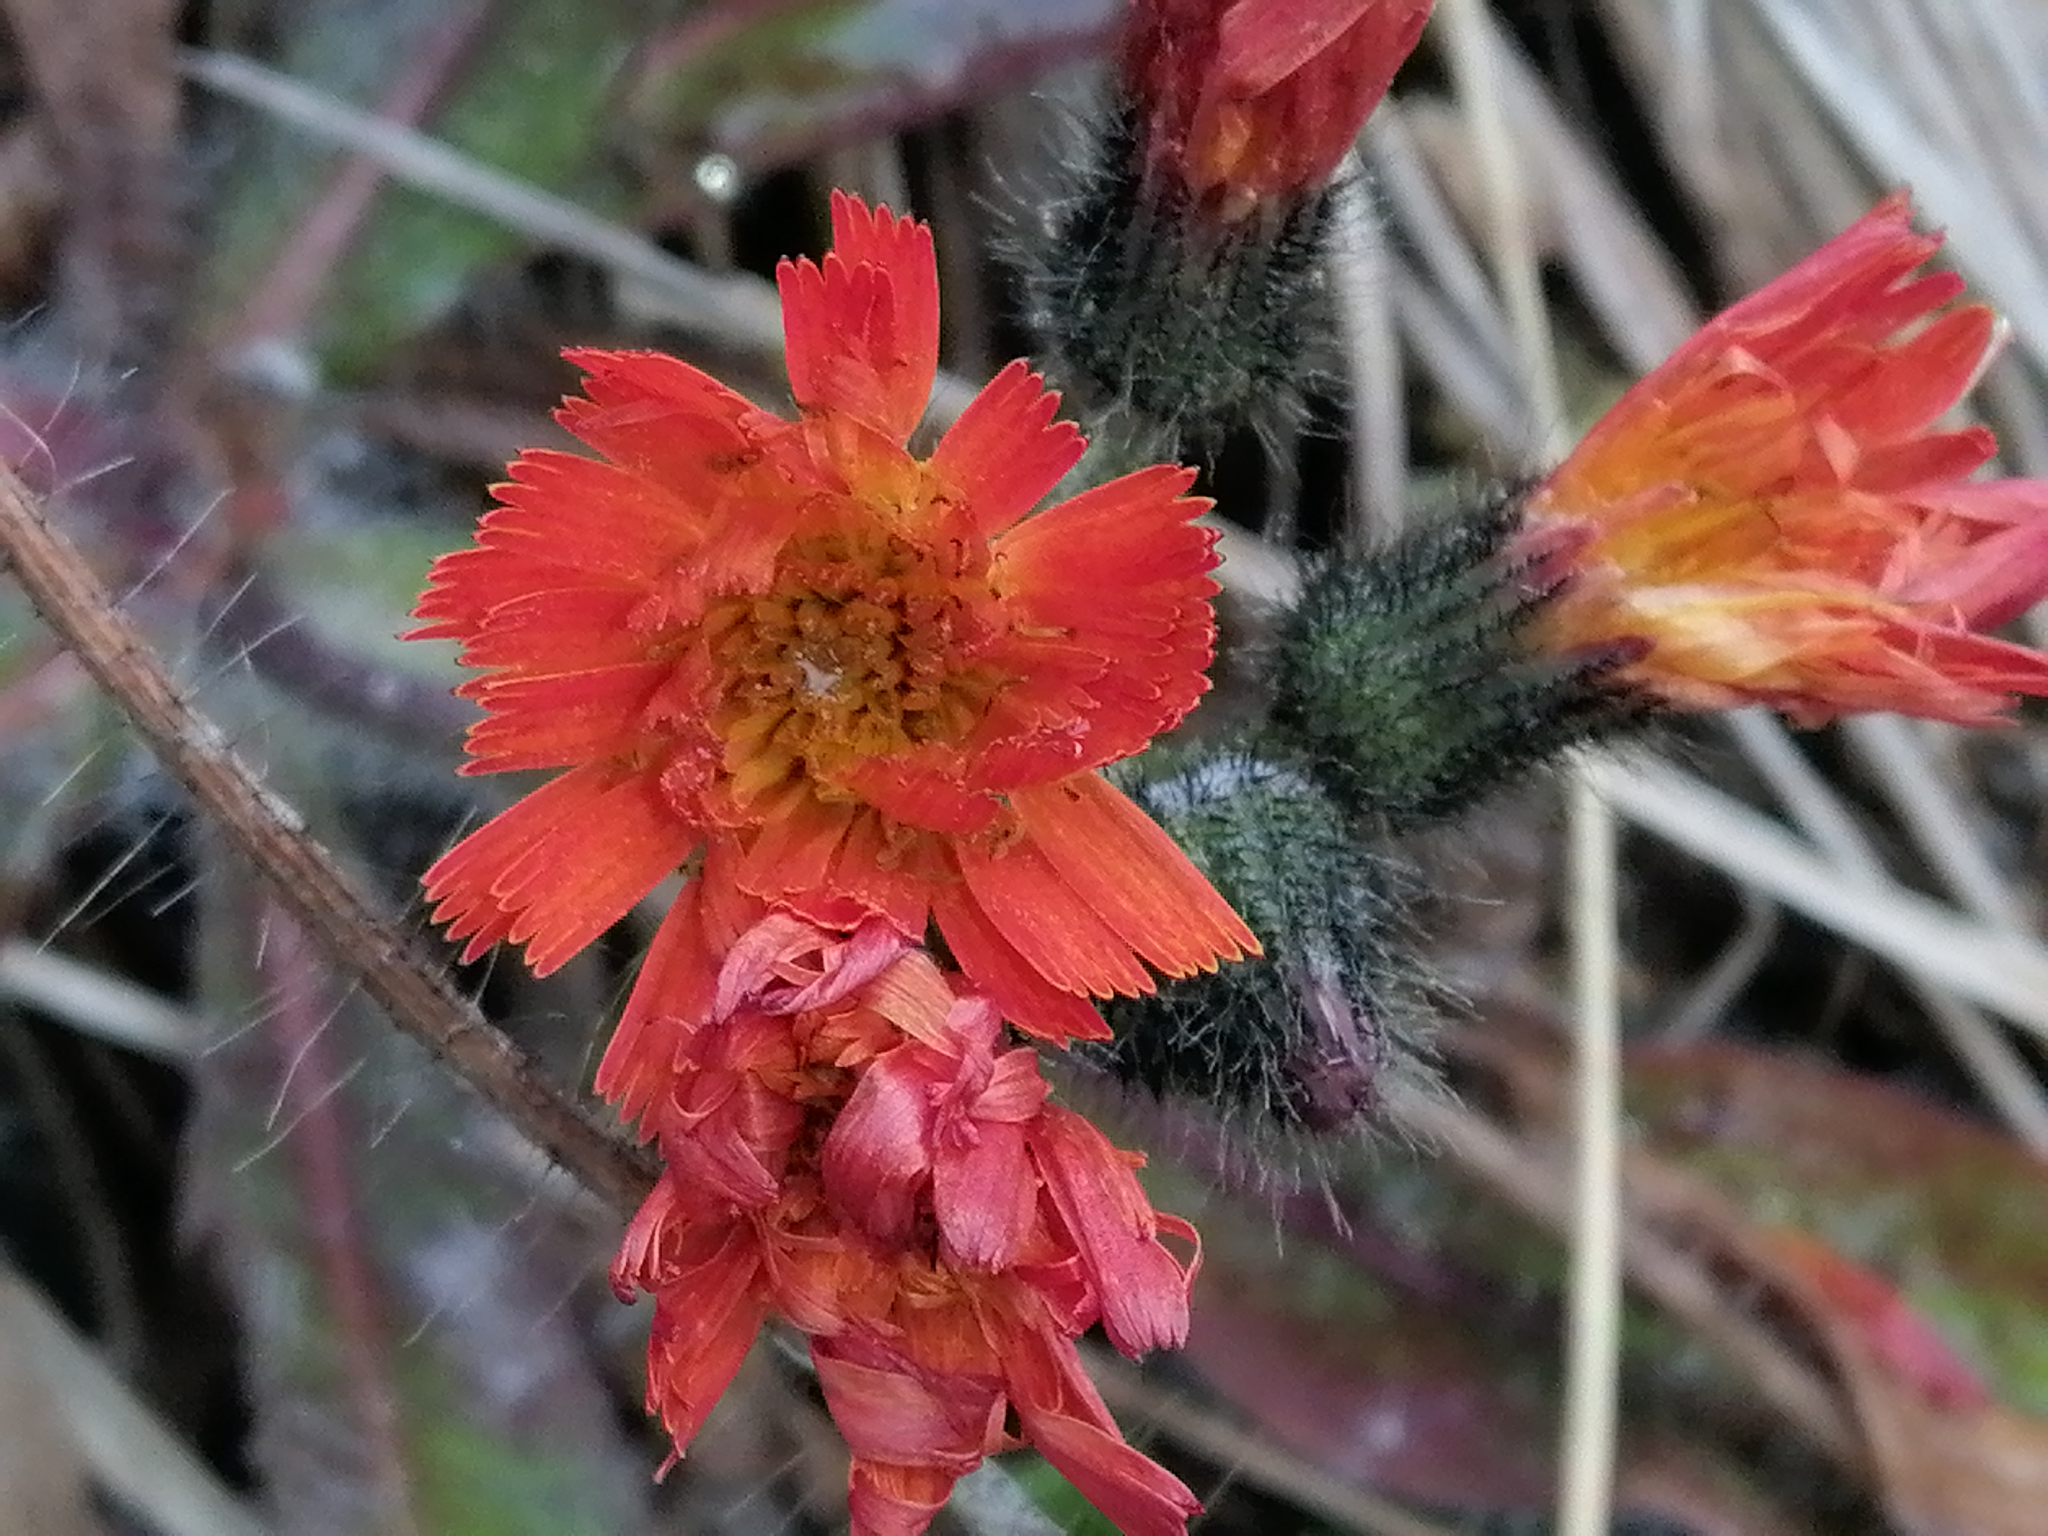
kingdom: Plantae
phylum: Tracheophyta
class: Magnoliopsida
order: Asterales
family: Asteraceae
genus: Pilosella
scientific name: Pilosella aurantiaca
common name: Fox-and-cubs
